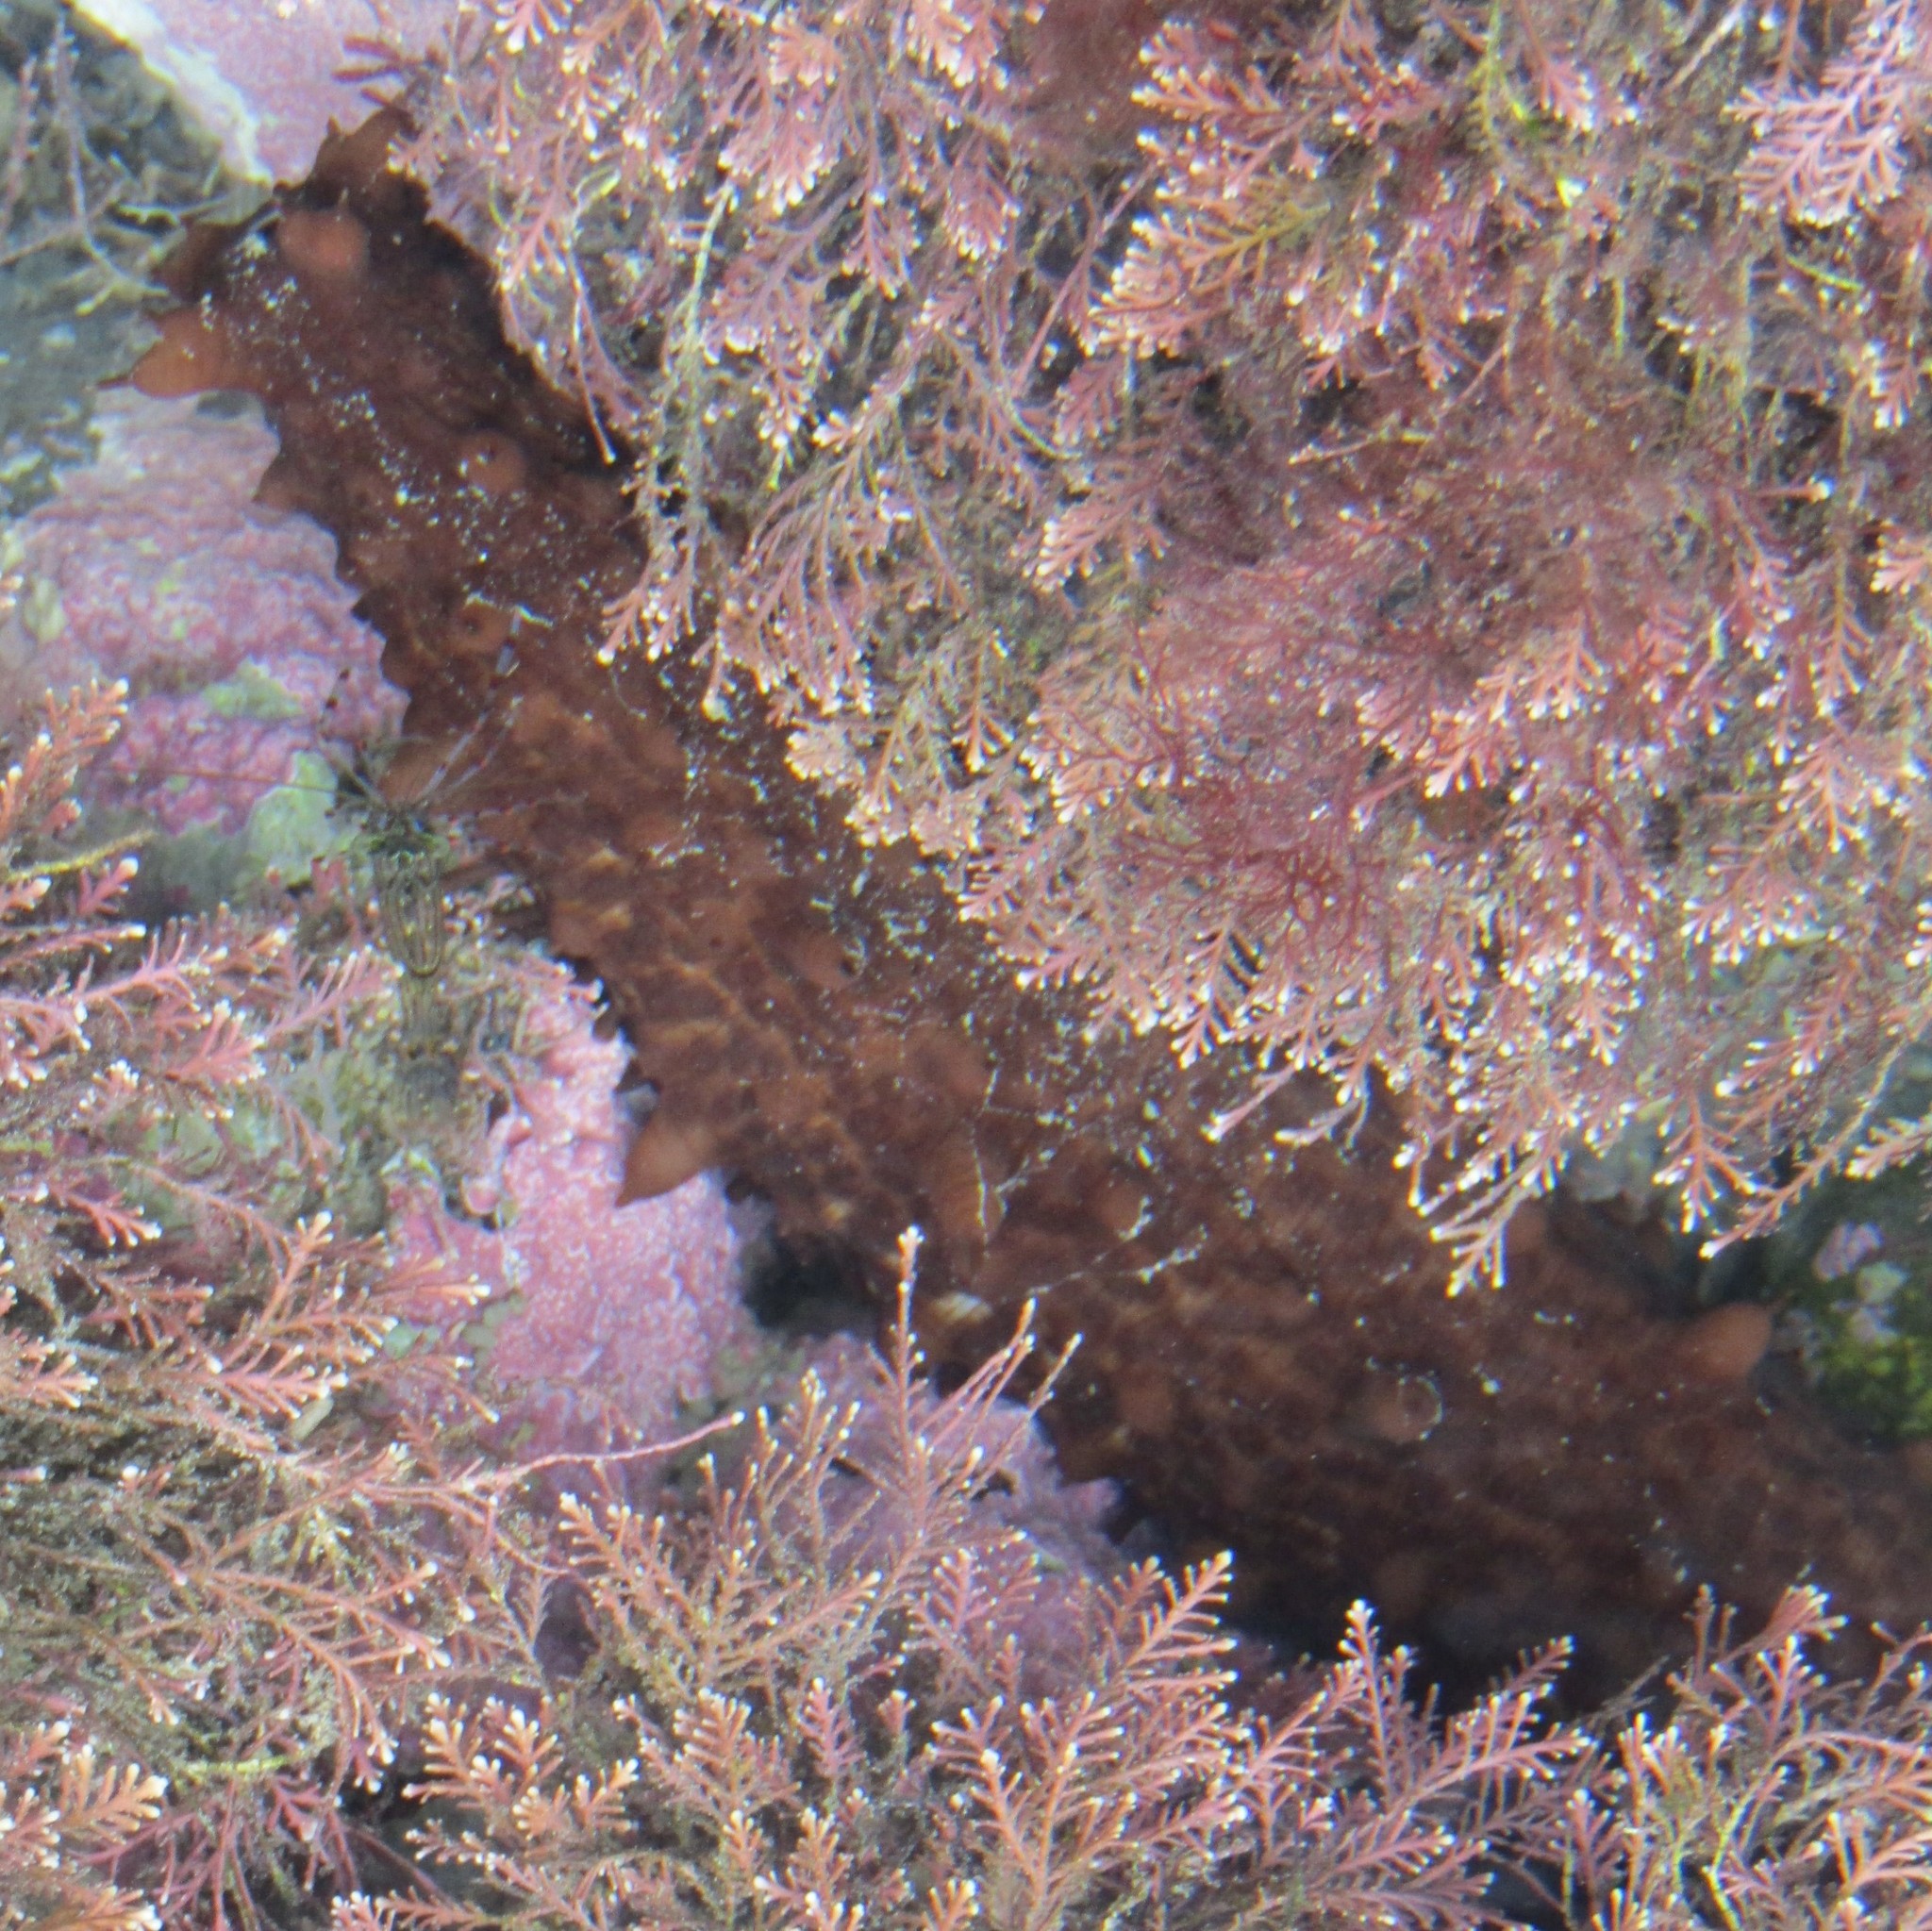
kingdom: Animalia
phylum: Echinodermata
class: Holothuroidea
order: Synallactida
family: Stichopodidae
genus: Australostichopus
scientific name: Australostichopus mollis
